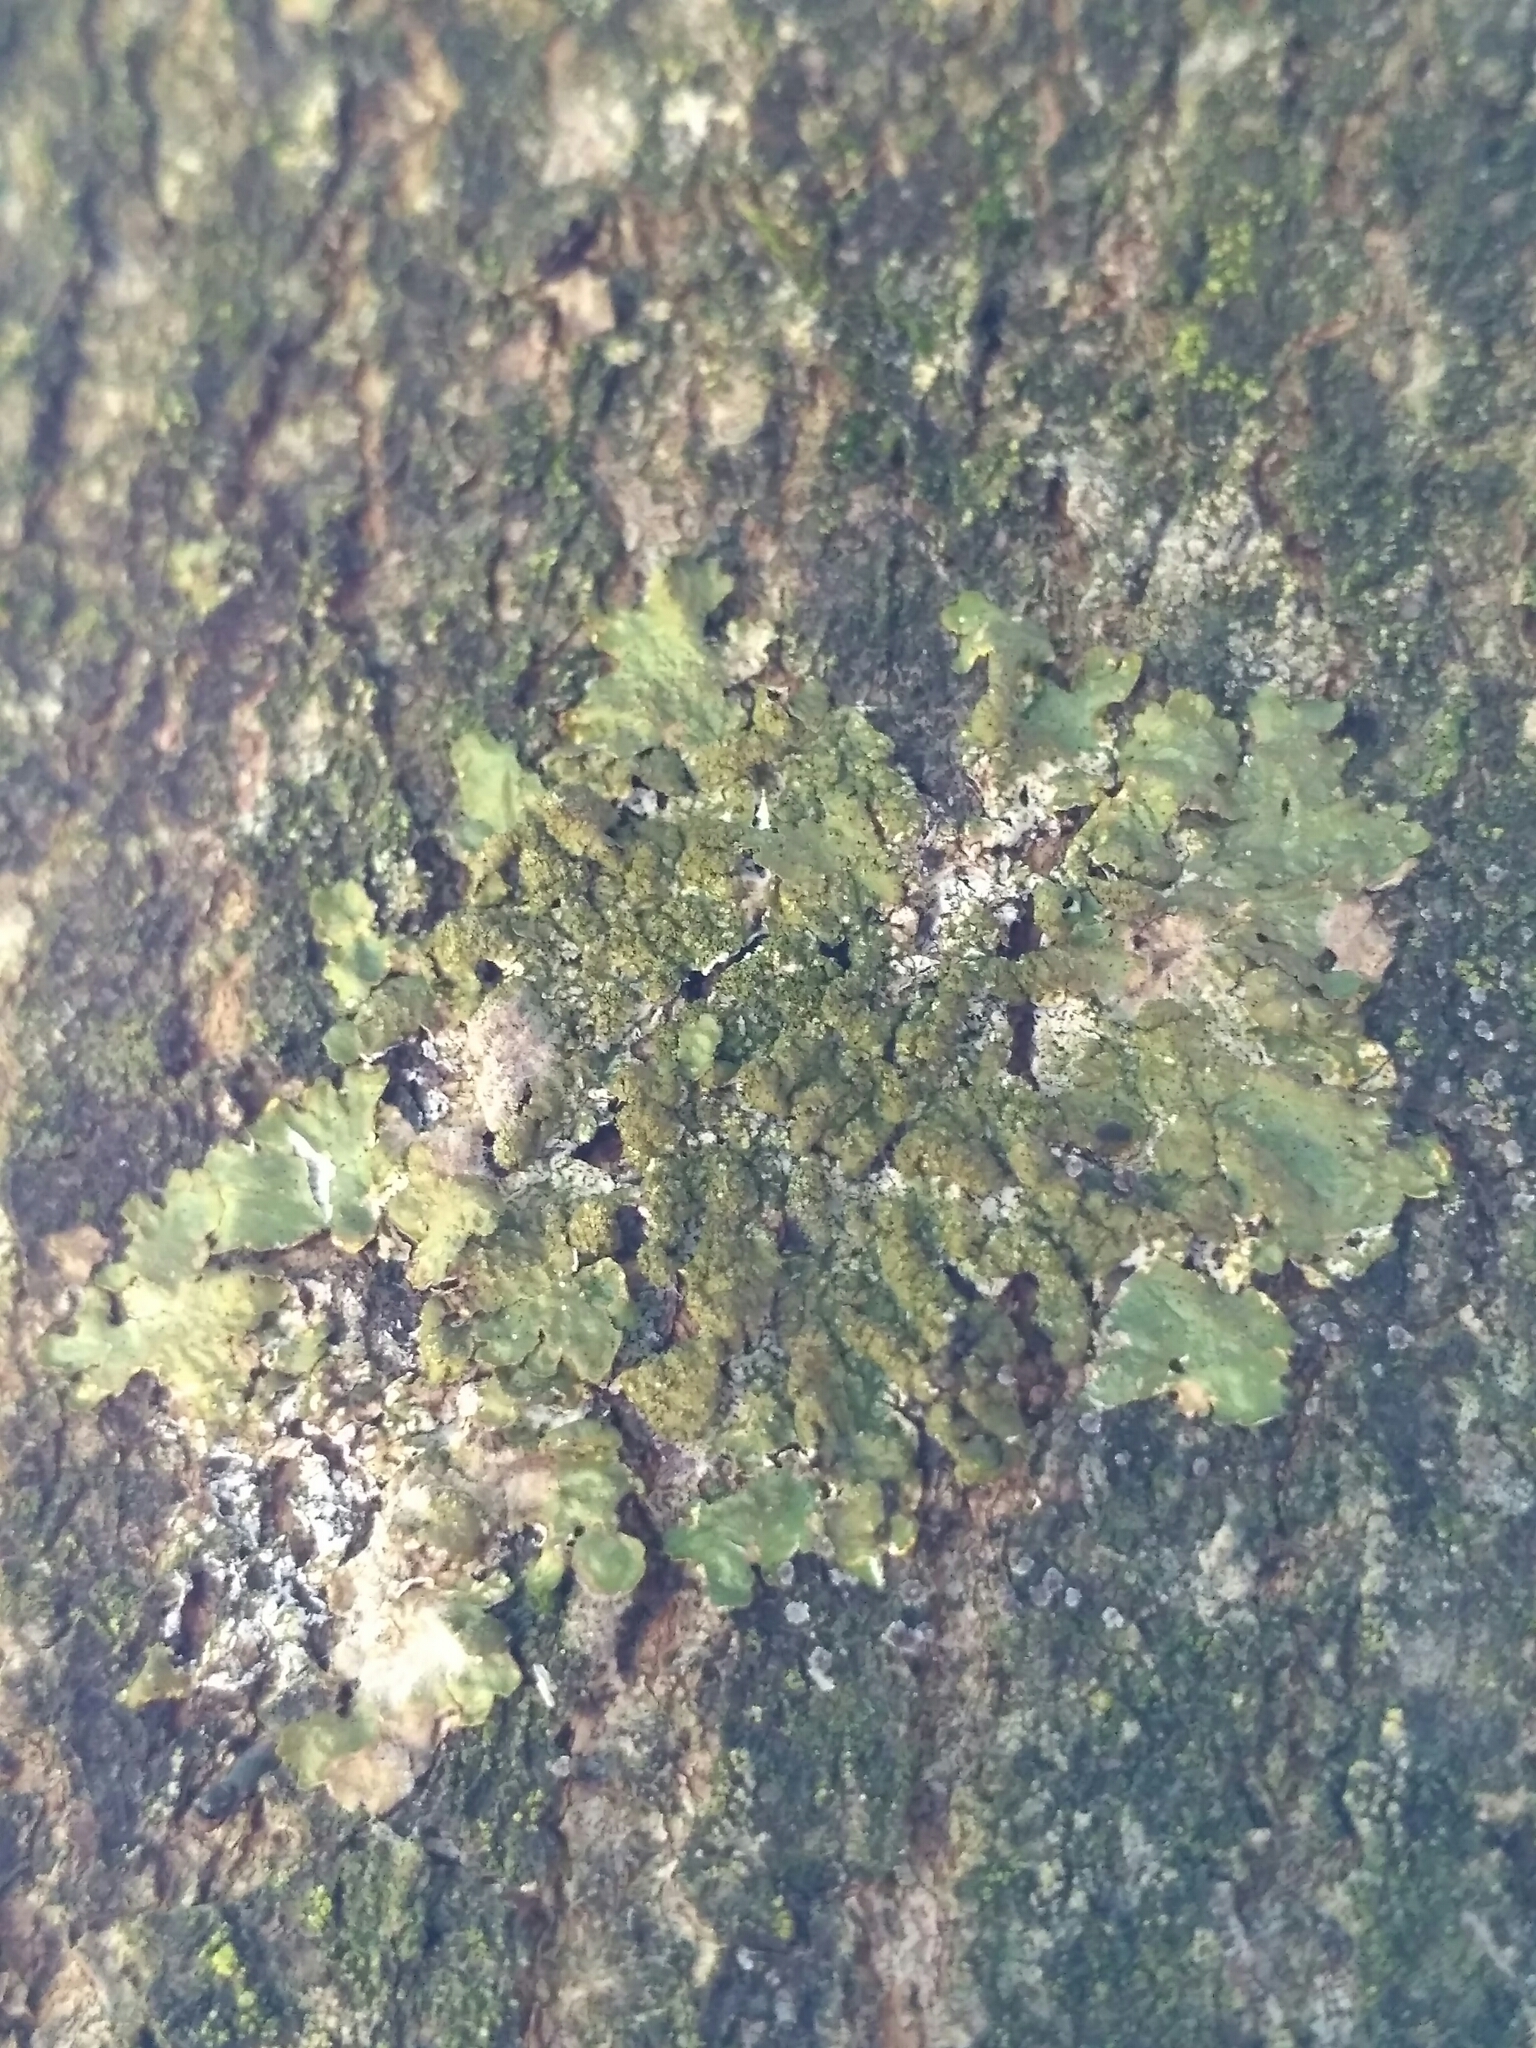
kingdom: Fungi
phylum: Ascomycota
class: Lecanoromycetes
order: Lecanorales
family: Parmeliaceae
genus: Melanelixia
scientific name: Melanelixia glabratula
